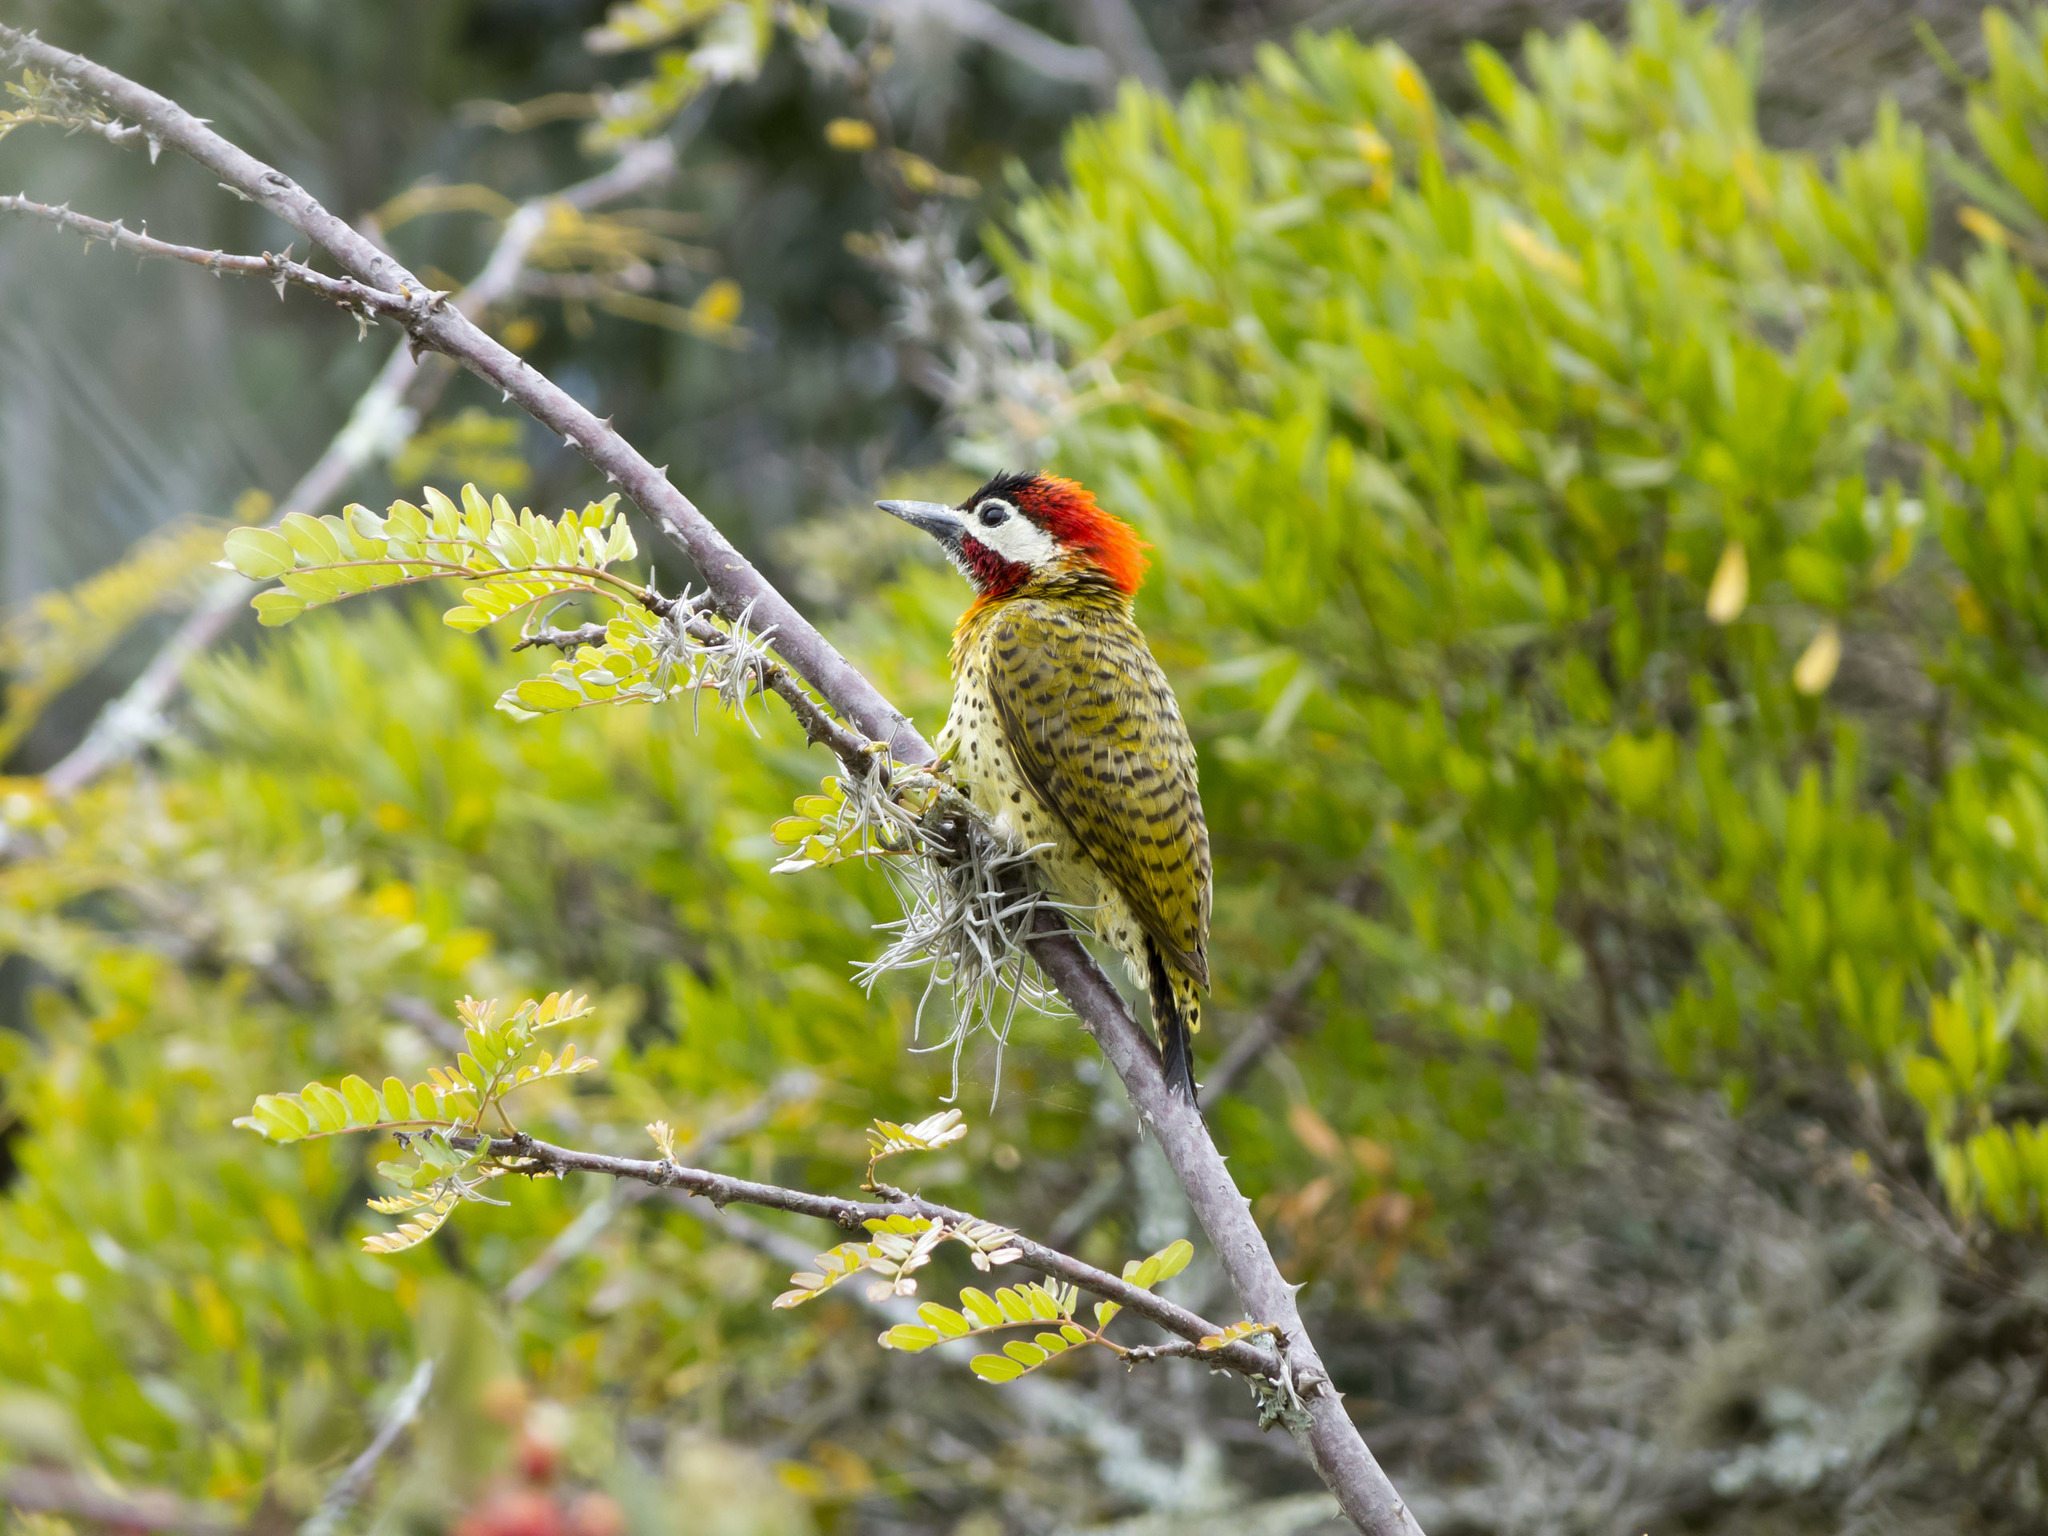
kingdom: Animalia
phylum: Chordata
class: Aves
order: Piciformes
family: Picidae
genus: Colaptes
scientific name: Colaptes punctigula
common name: Spot-breasted woodpecker
